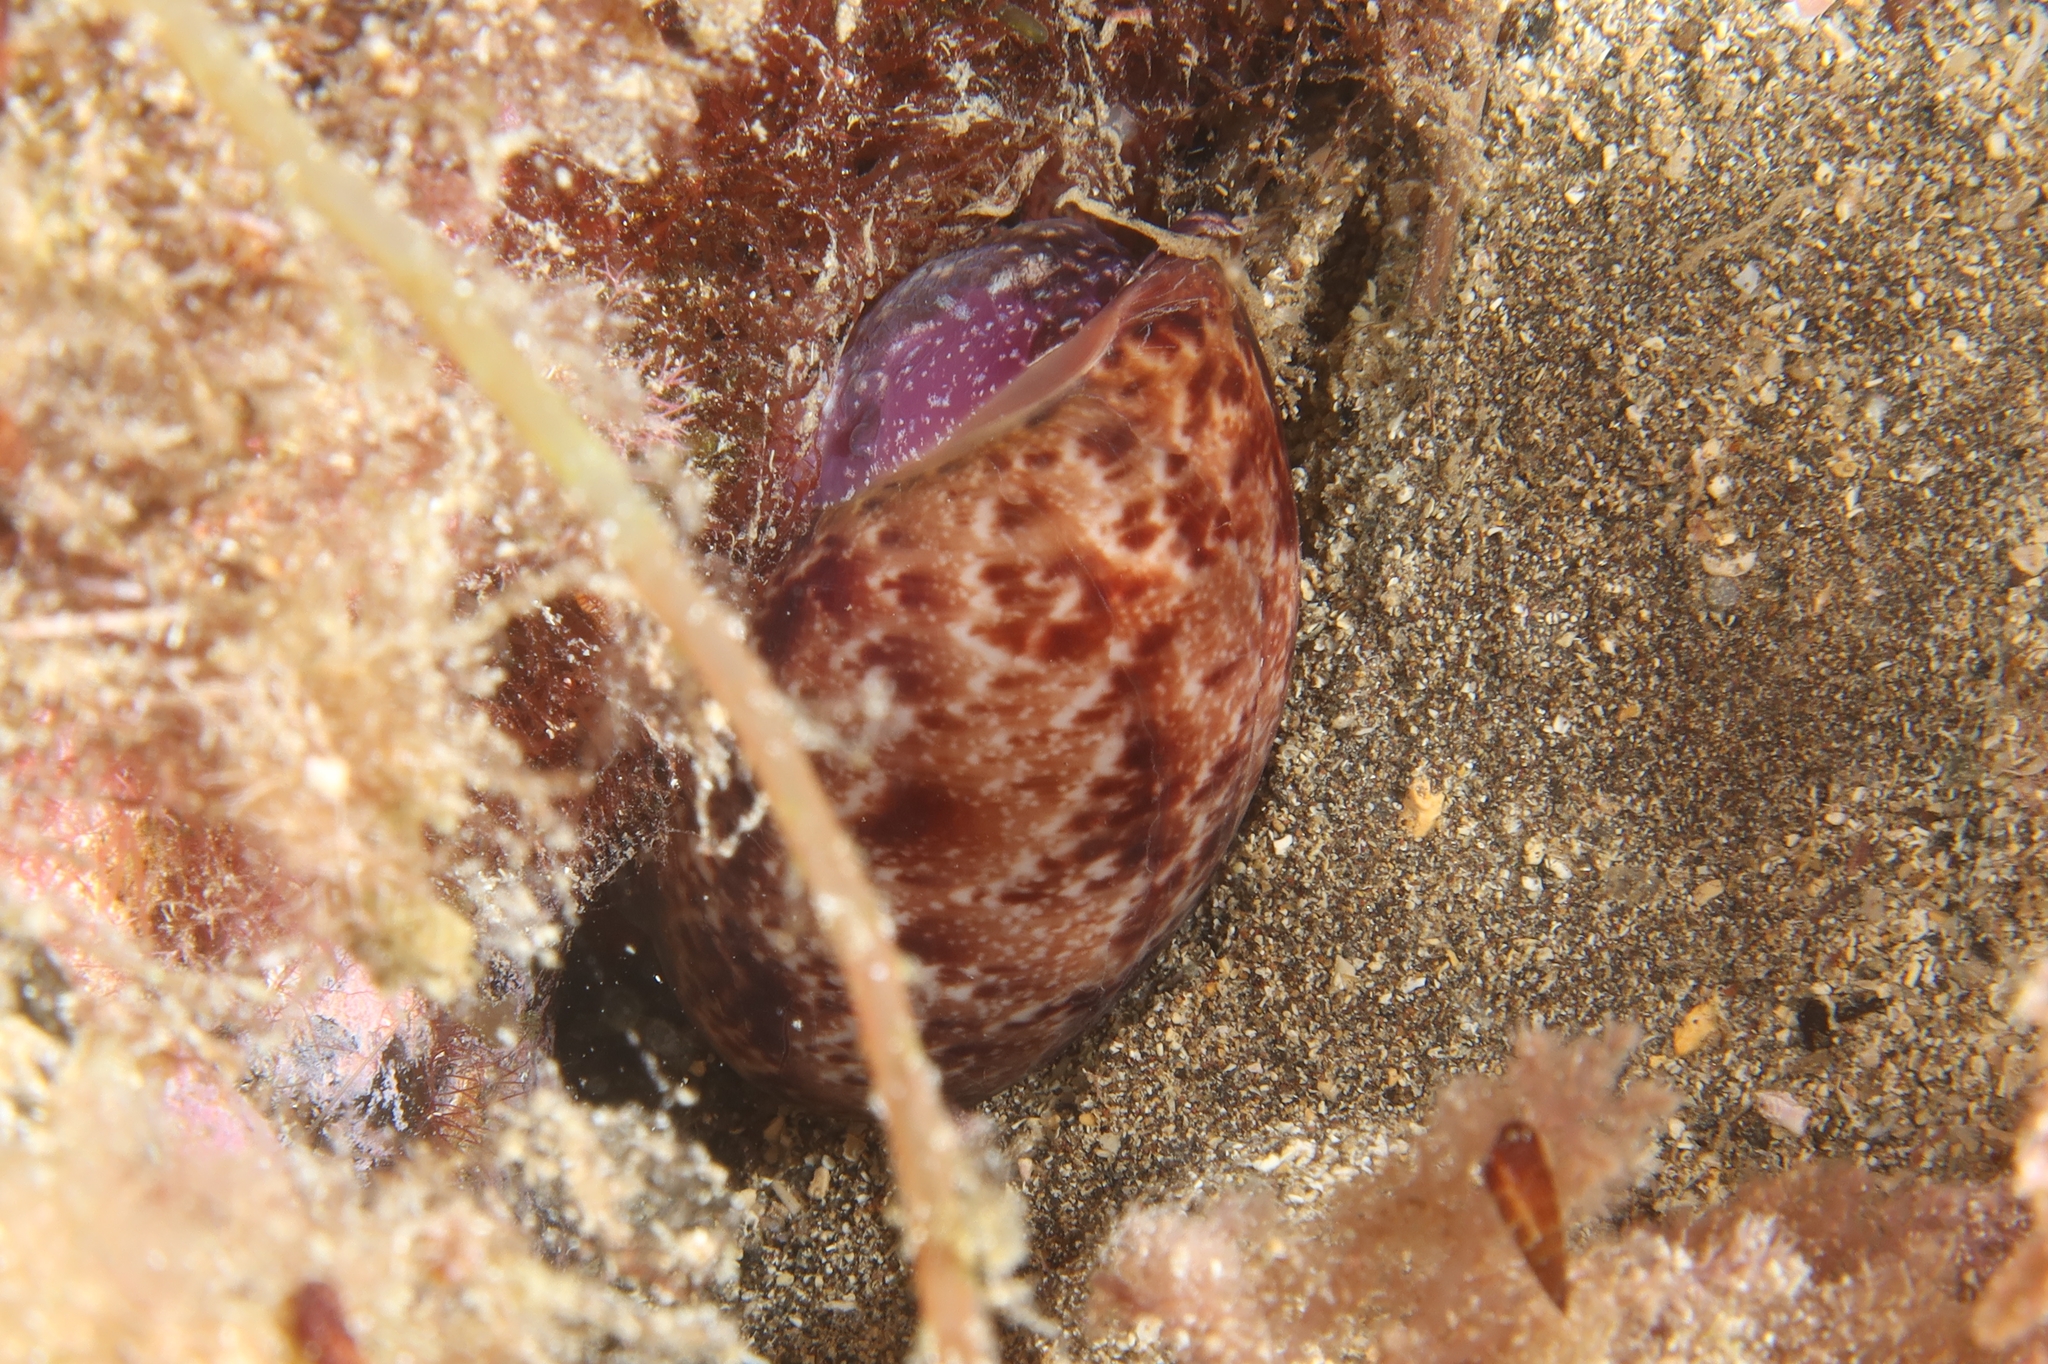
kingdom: Animalia
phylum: Mollusca
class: Gastropoda
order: Cephalaspidea
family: Bullidae
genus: Bulla
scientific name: Bulla mabillei
